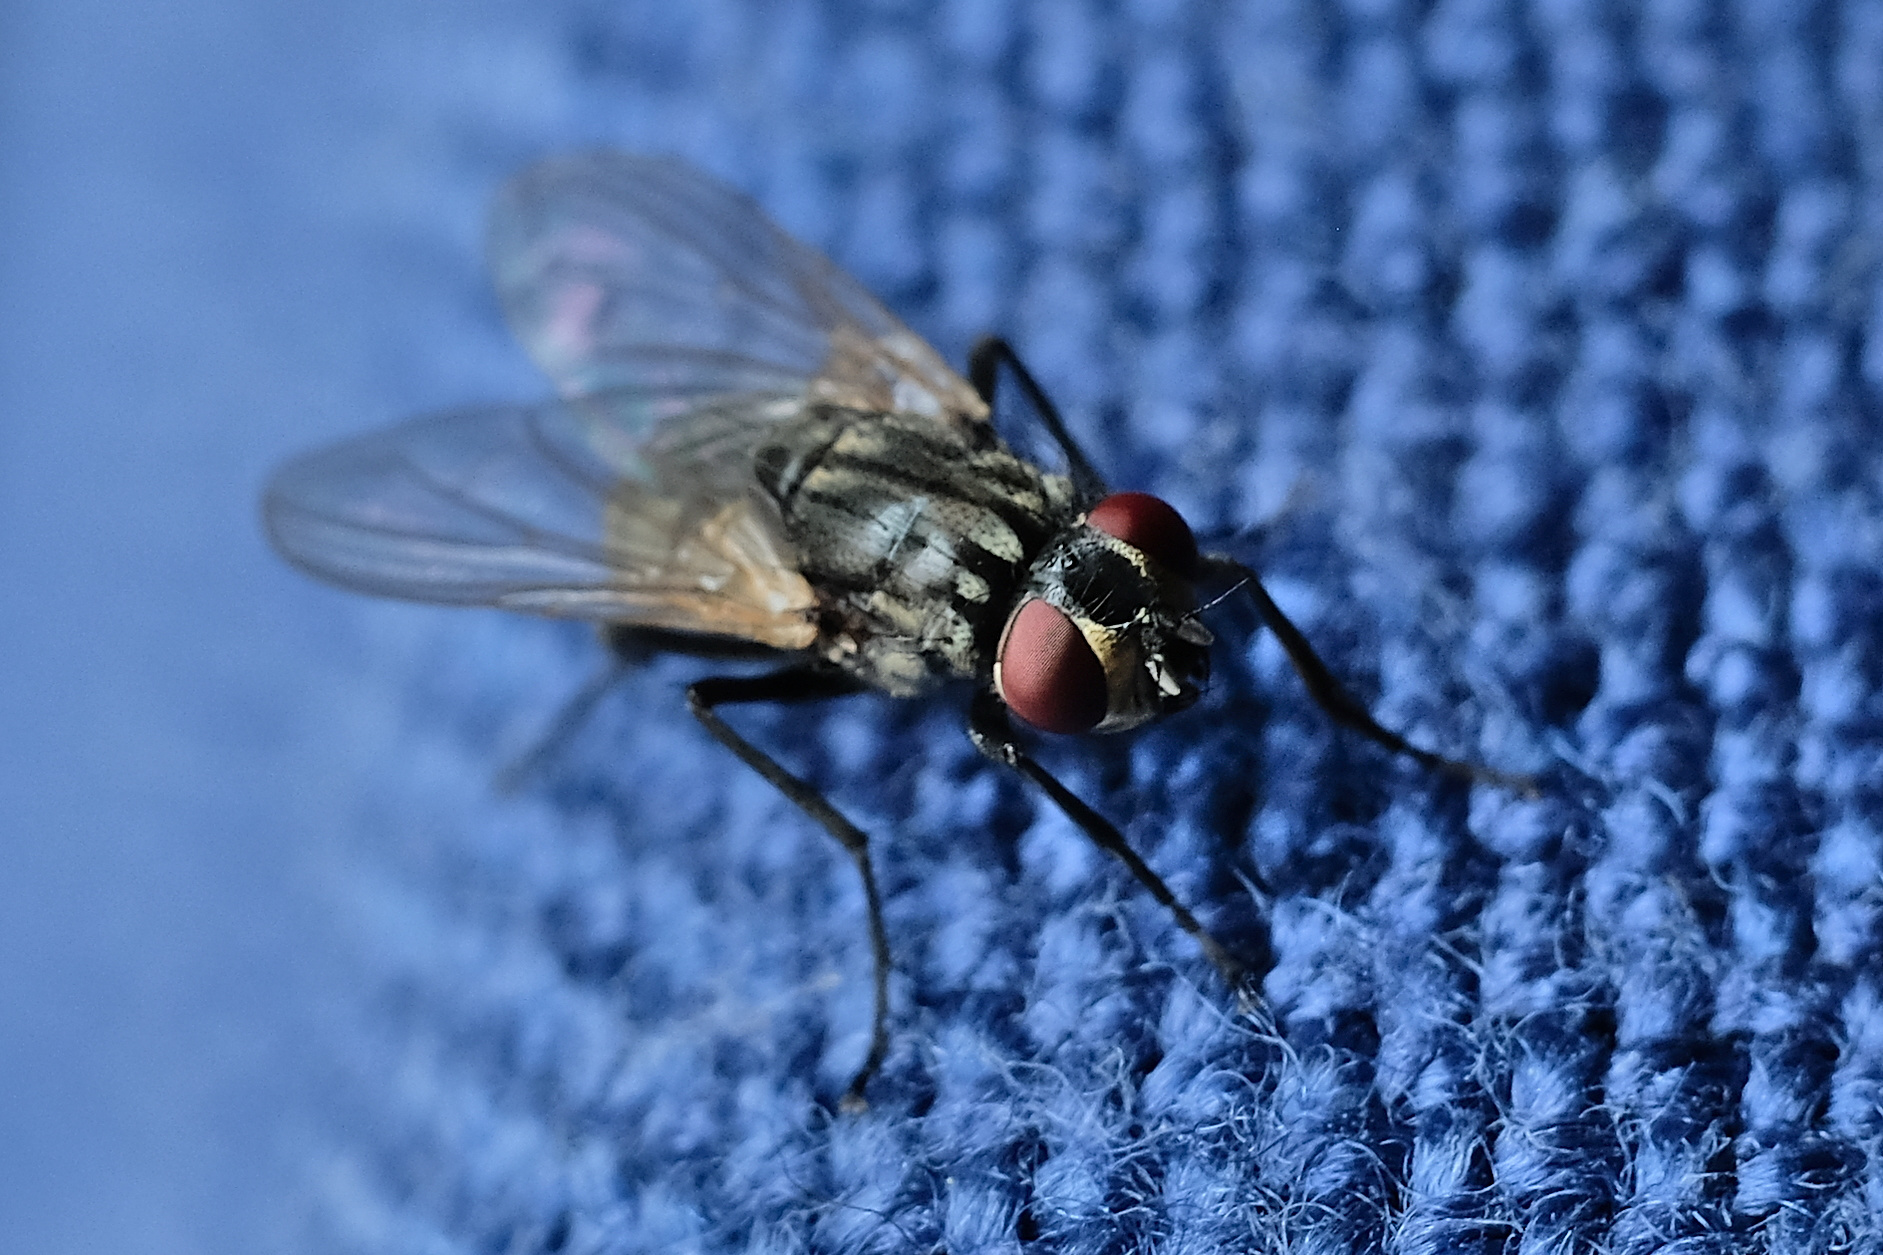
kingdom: Animalia
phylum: Arthropoda
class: Insecta
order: Diptera
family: Muscidae
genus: Musca
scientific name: Musca domestica
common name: House fly
